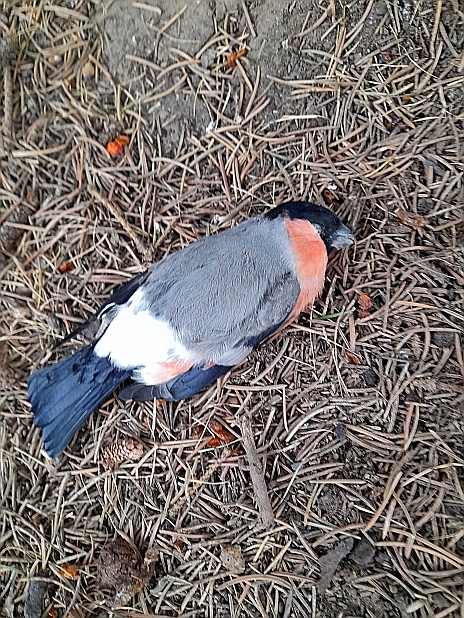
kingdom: Animalia
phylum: Chordata
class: Aves
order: Passeriformes
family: Fringillidae
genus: Pyrrhula
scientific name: Pyrrhula pyrrhula
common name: Eurasian bullfinch
